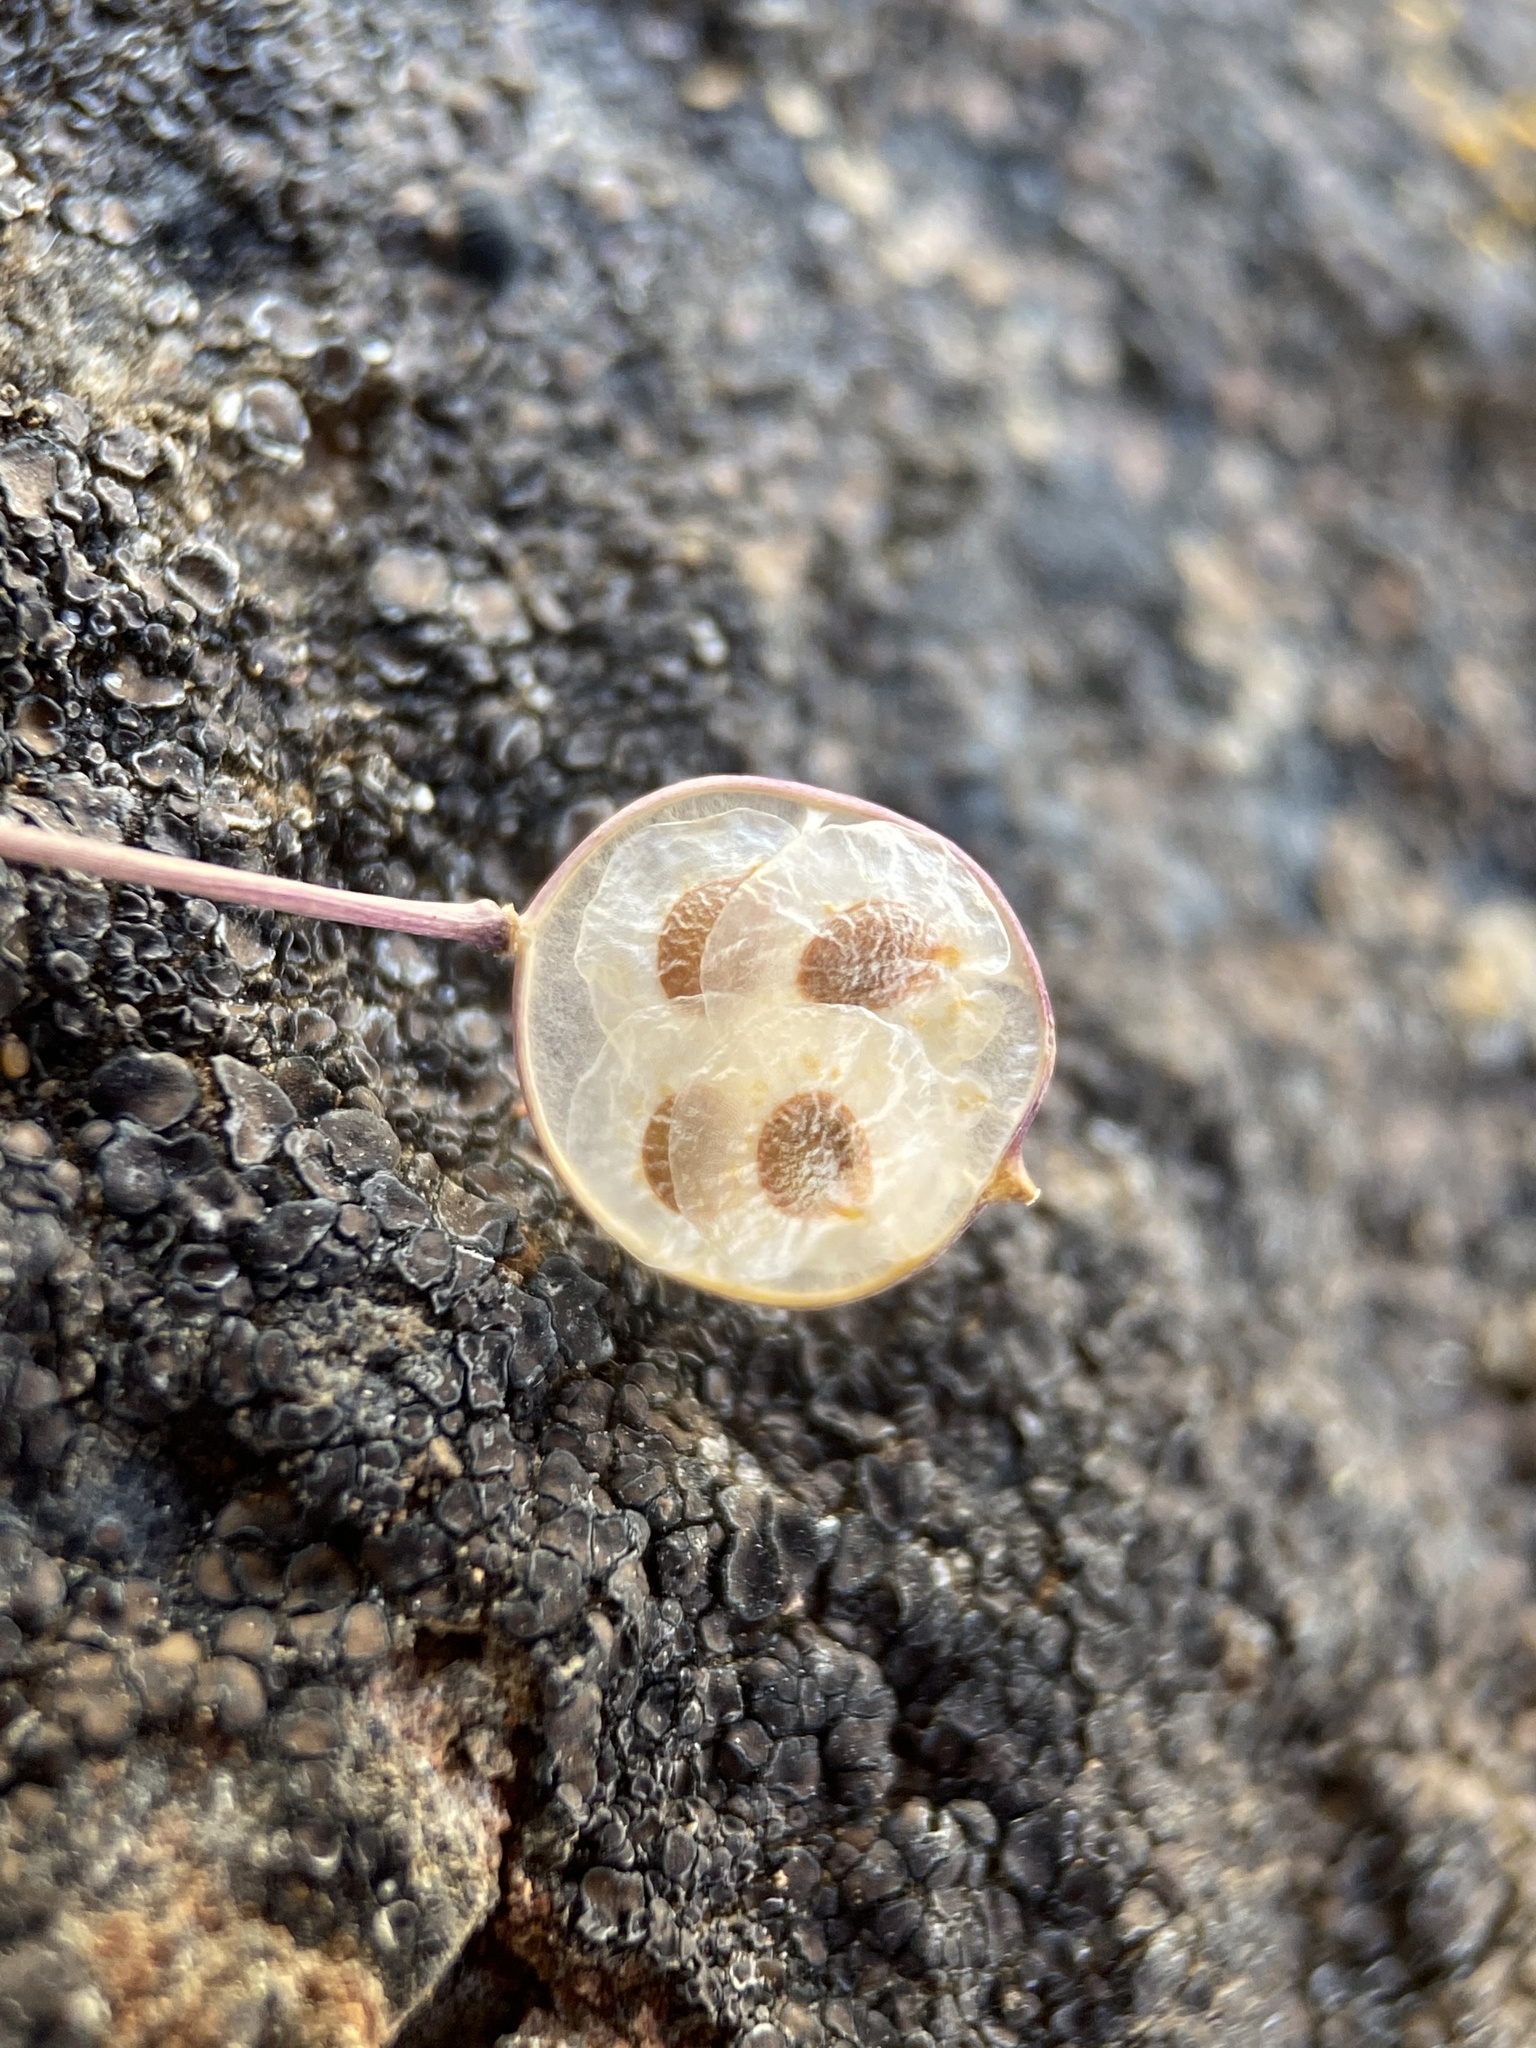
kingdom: Plantae
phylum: Tracheophyta
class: Magnoliopsida
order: Brassicales
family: Brassicaceae
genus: Idahoa
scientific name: Idahoa scapigera
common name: Scalepod
